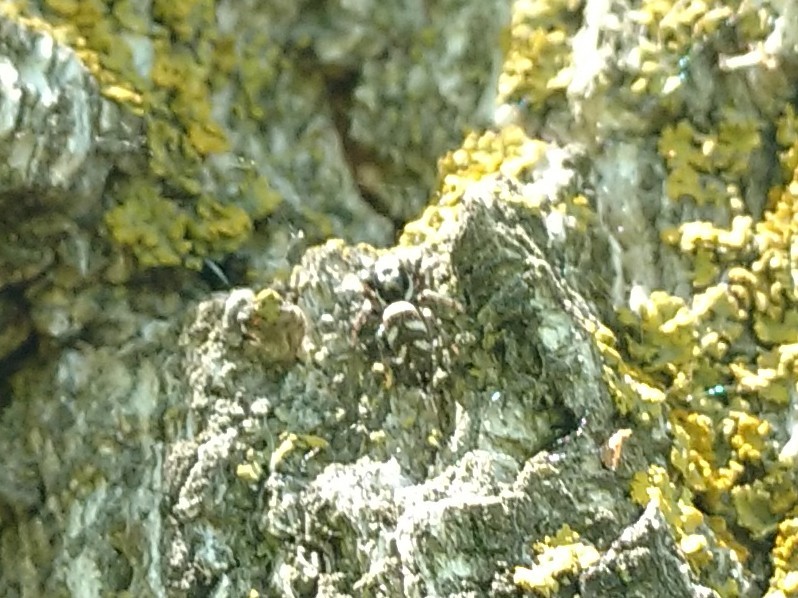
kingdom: Animalia
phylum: Arthropoda
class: Arachnida
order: Araneae
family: Salticidae
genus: Salticus
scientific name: Salticus scenicus
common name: Zebra jumper
